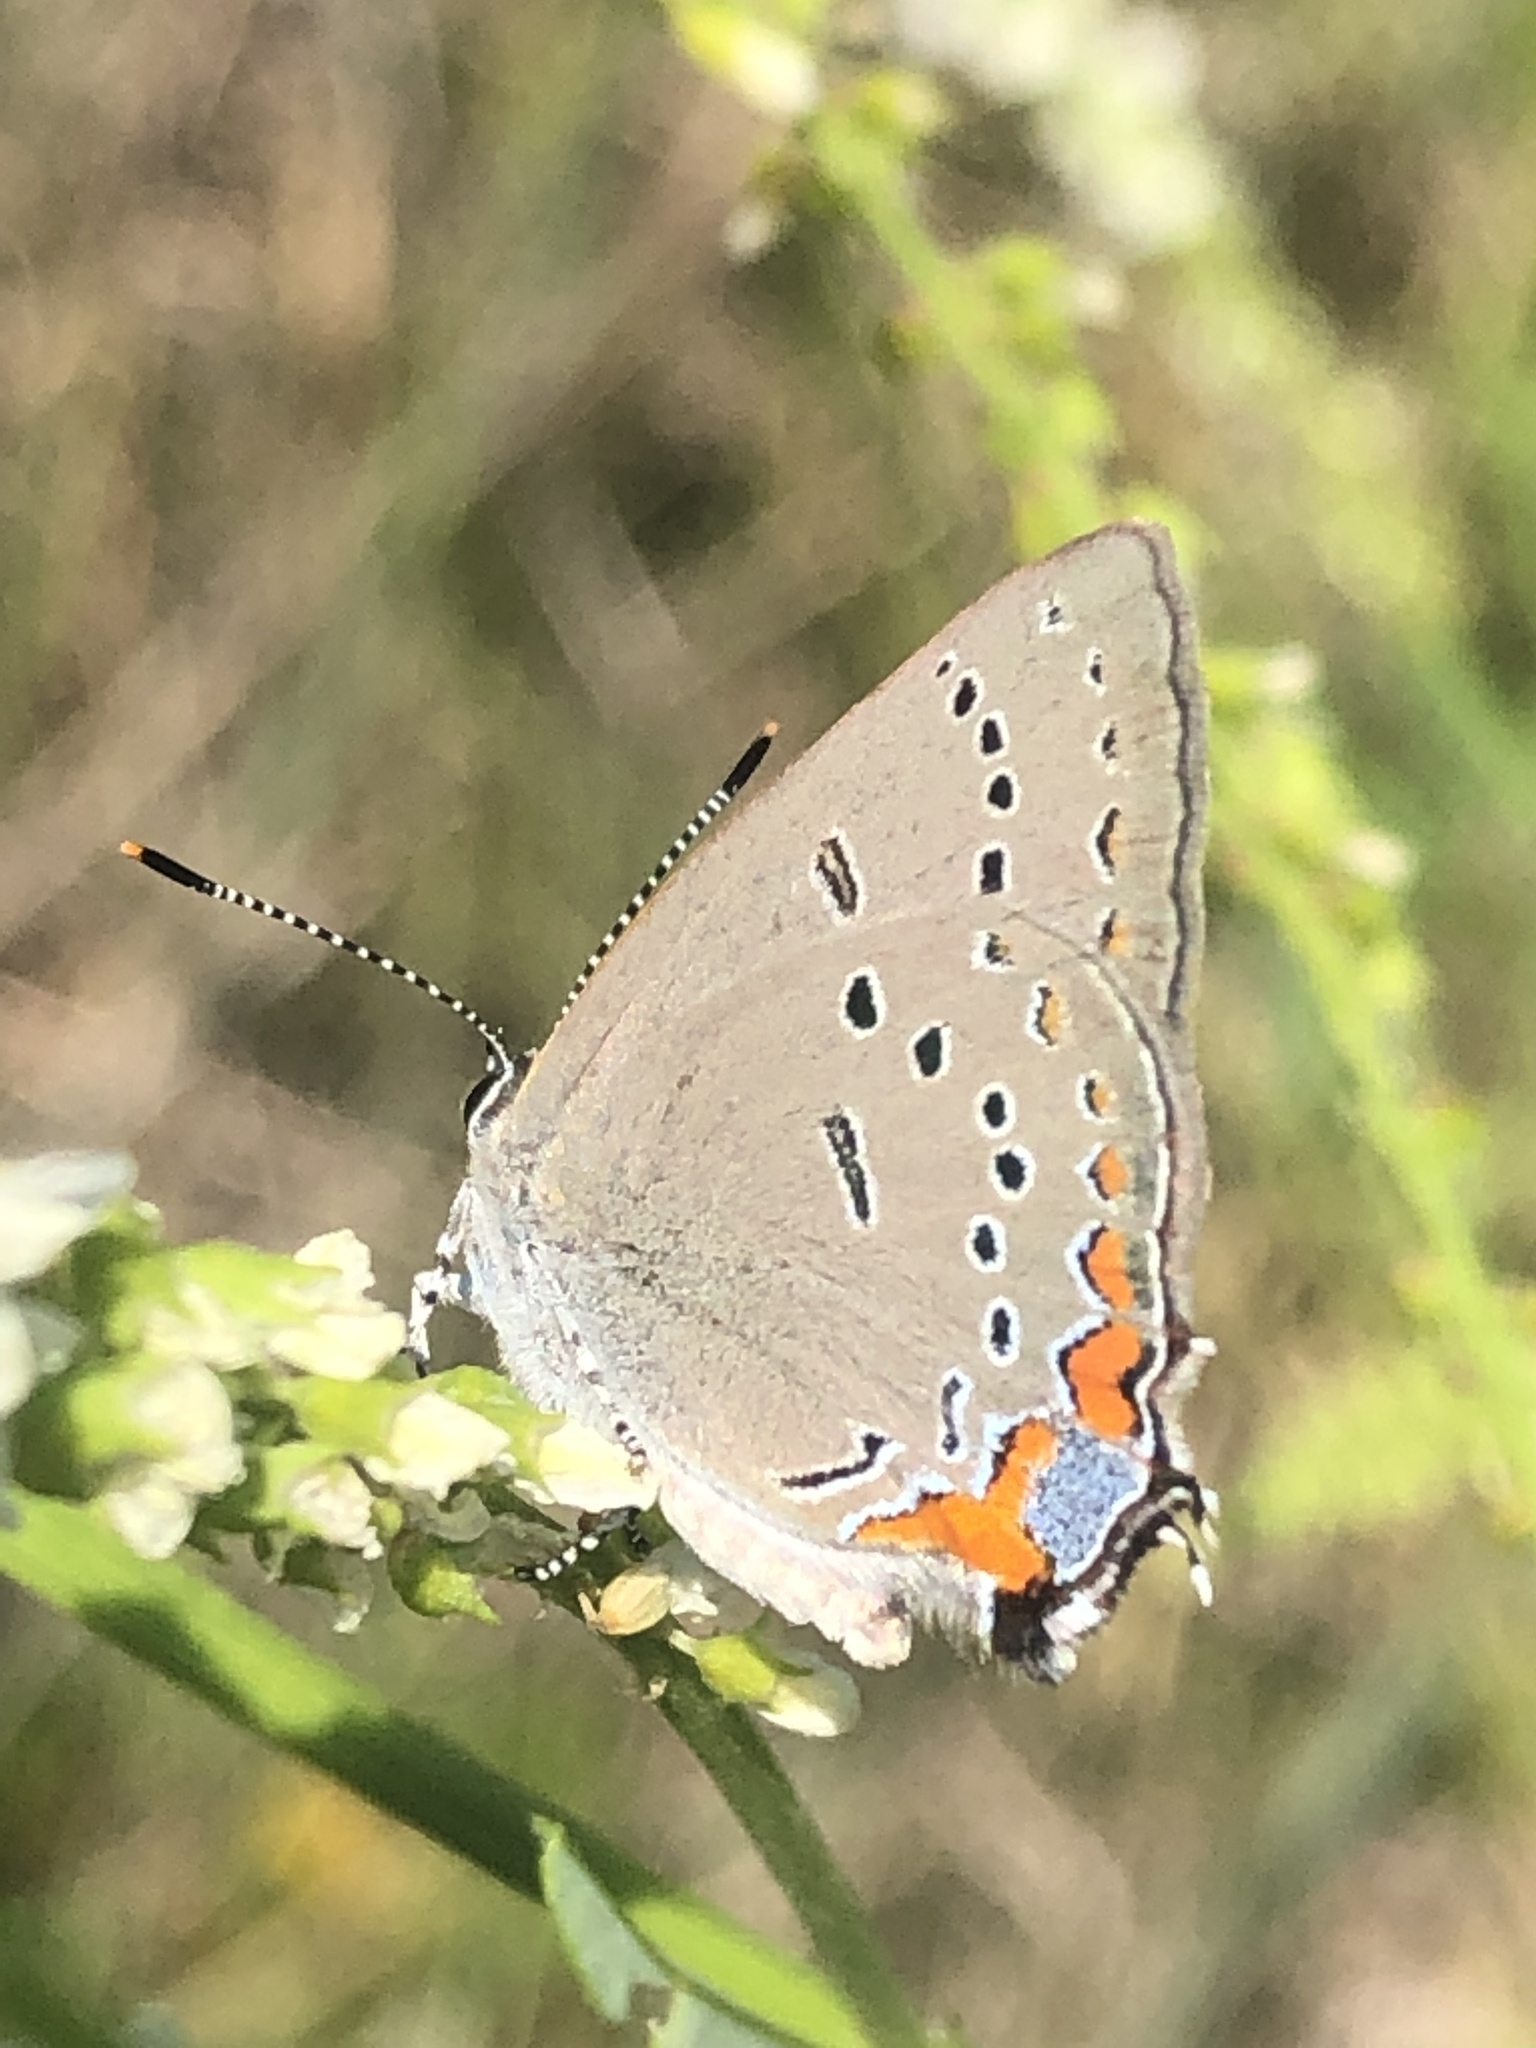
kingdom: Animalia
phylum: Arthropoda
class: Insecta
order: Lepidoptera
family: Lycaenidae
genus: Strymon
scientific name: Strymon acadica
